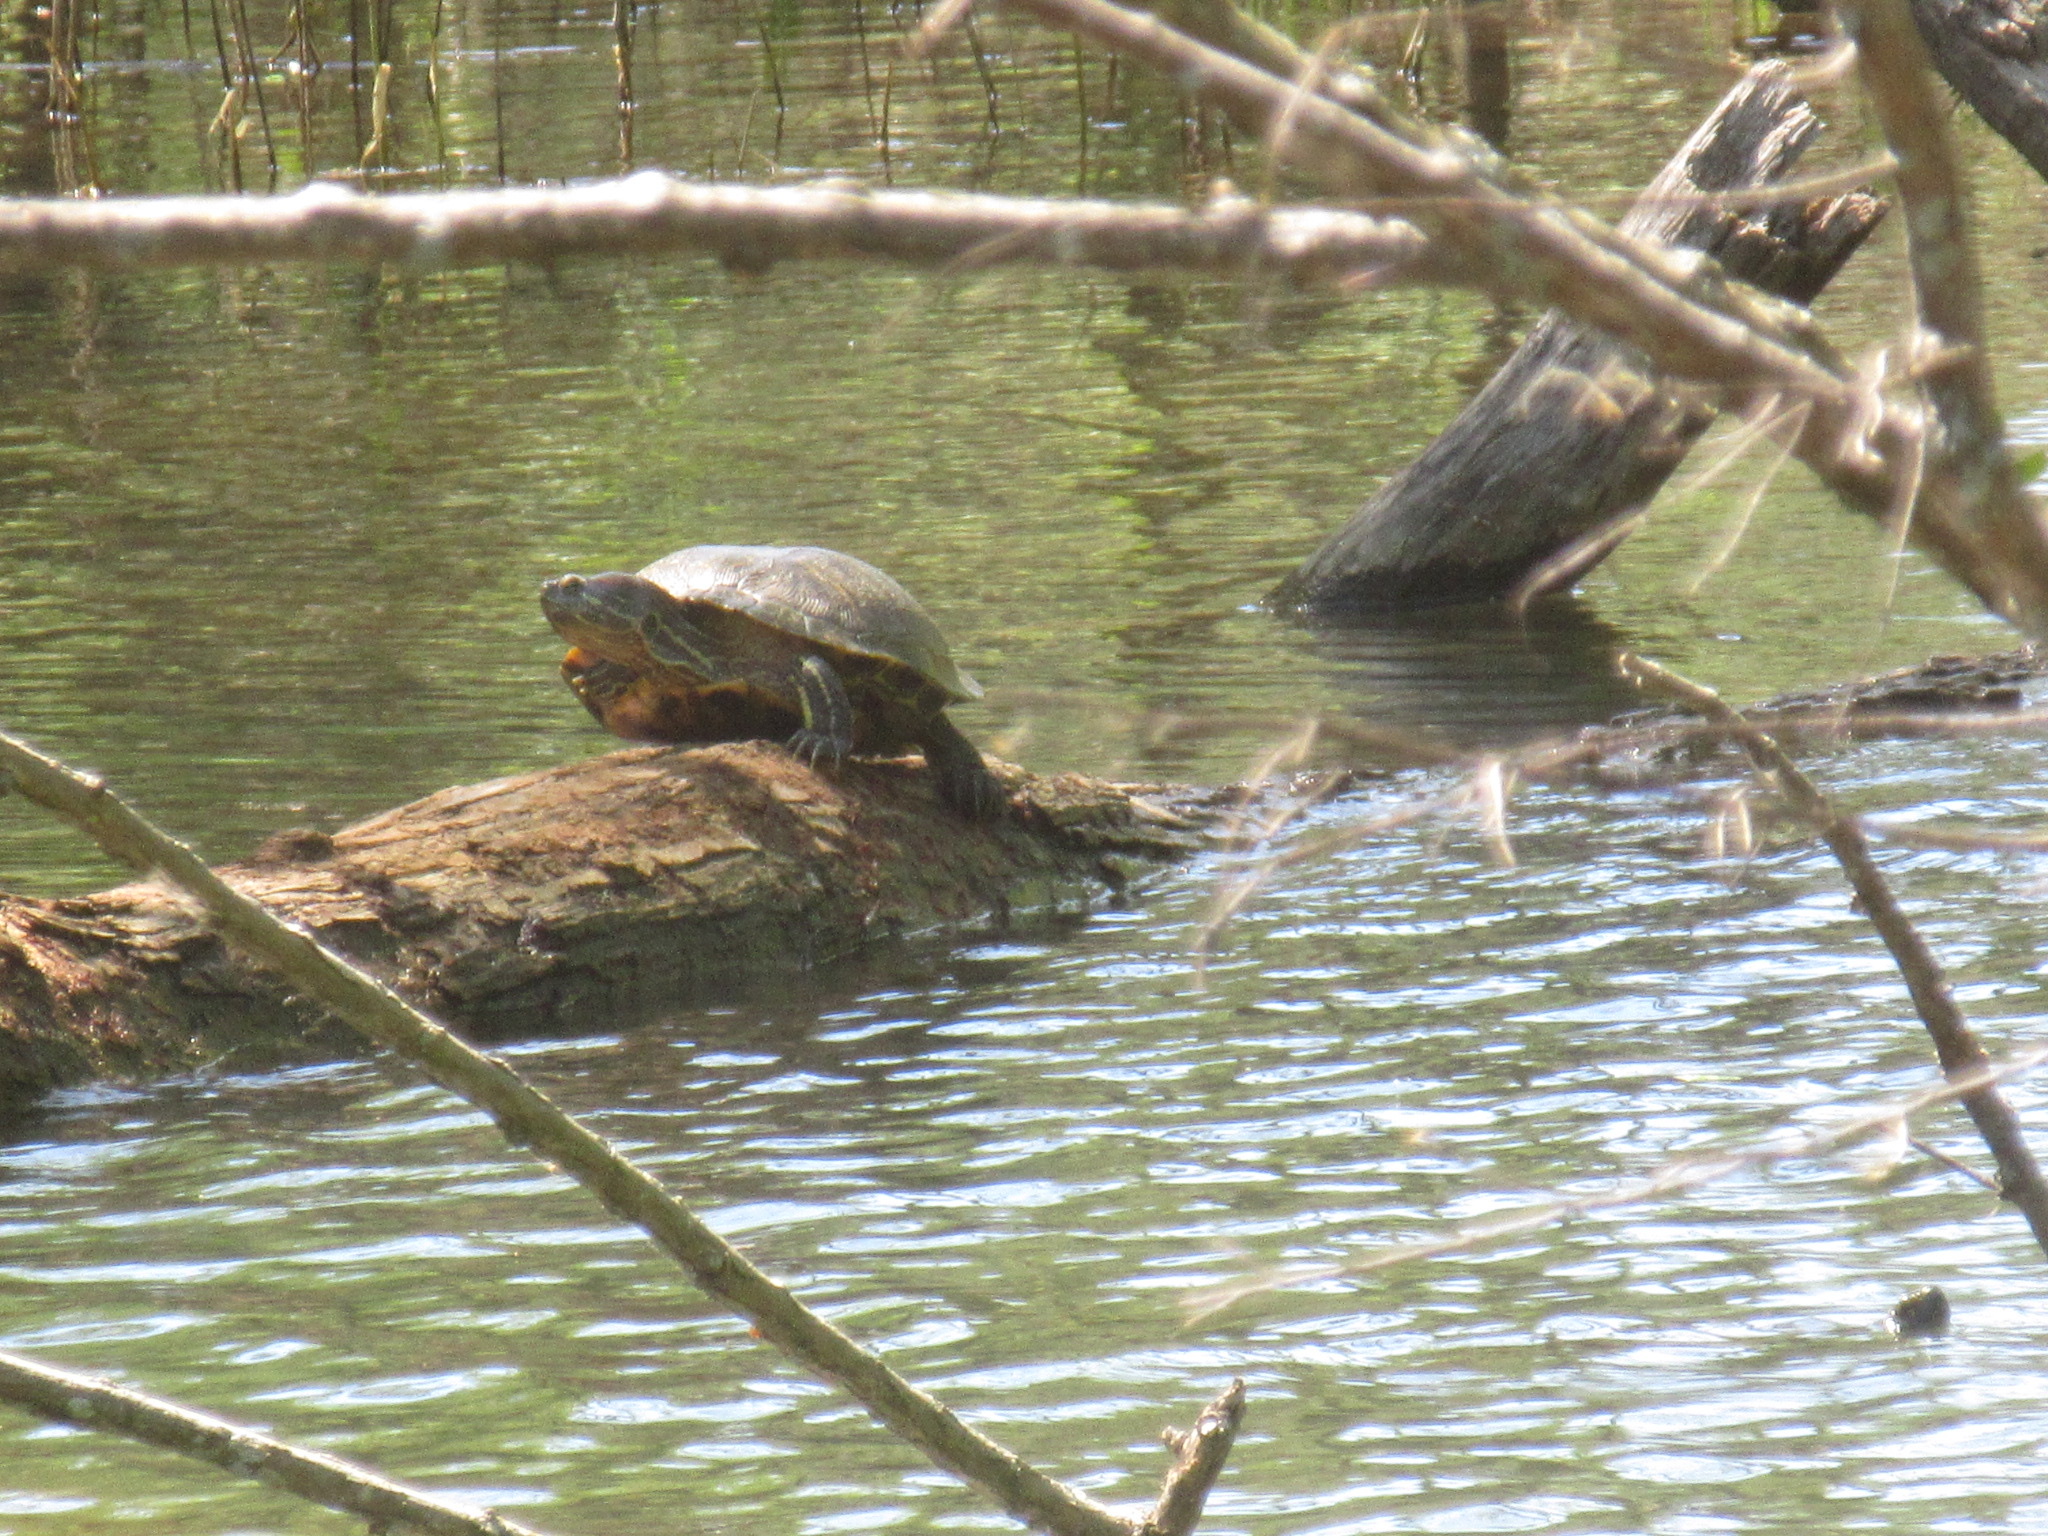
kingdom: Animalia
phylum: Chordata
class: Testudines
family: Emydidae
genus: Trachemys
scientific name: Trachemys scripta
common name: Slider
